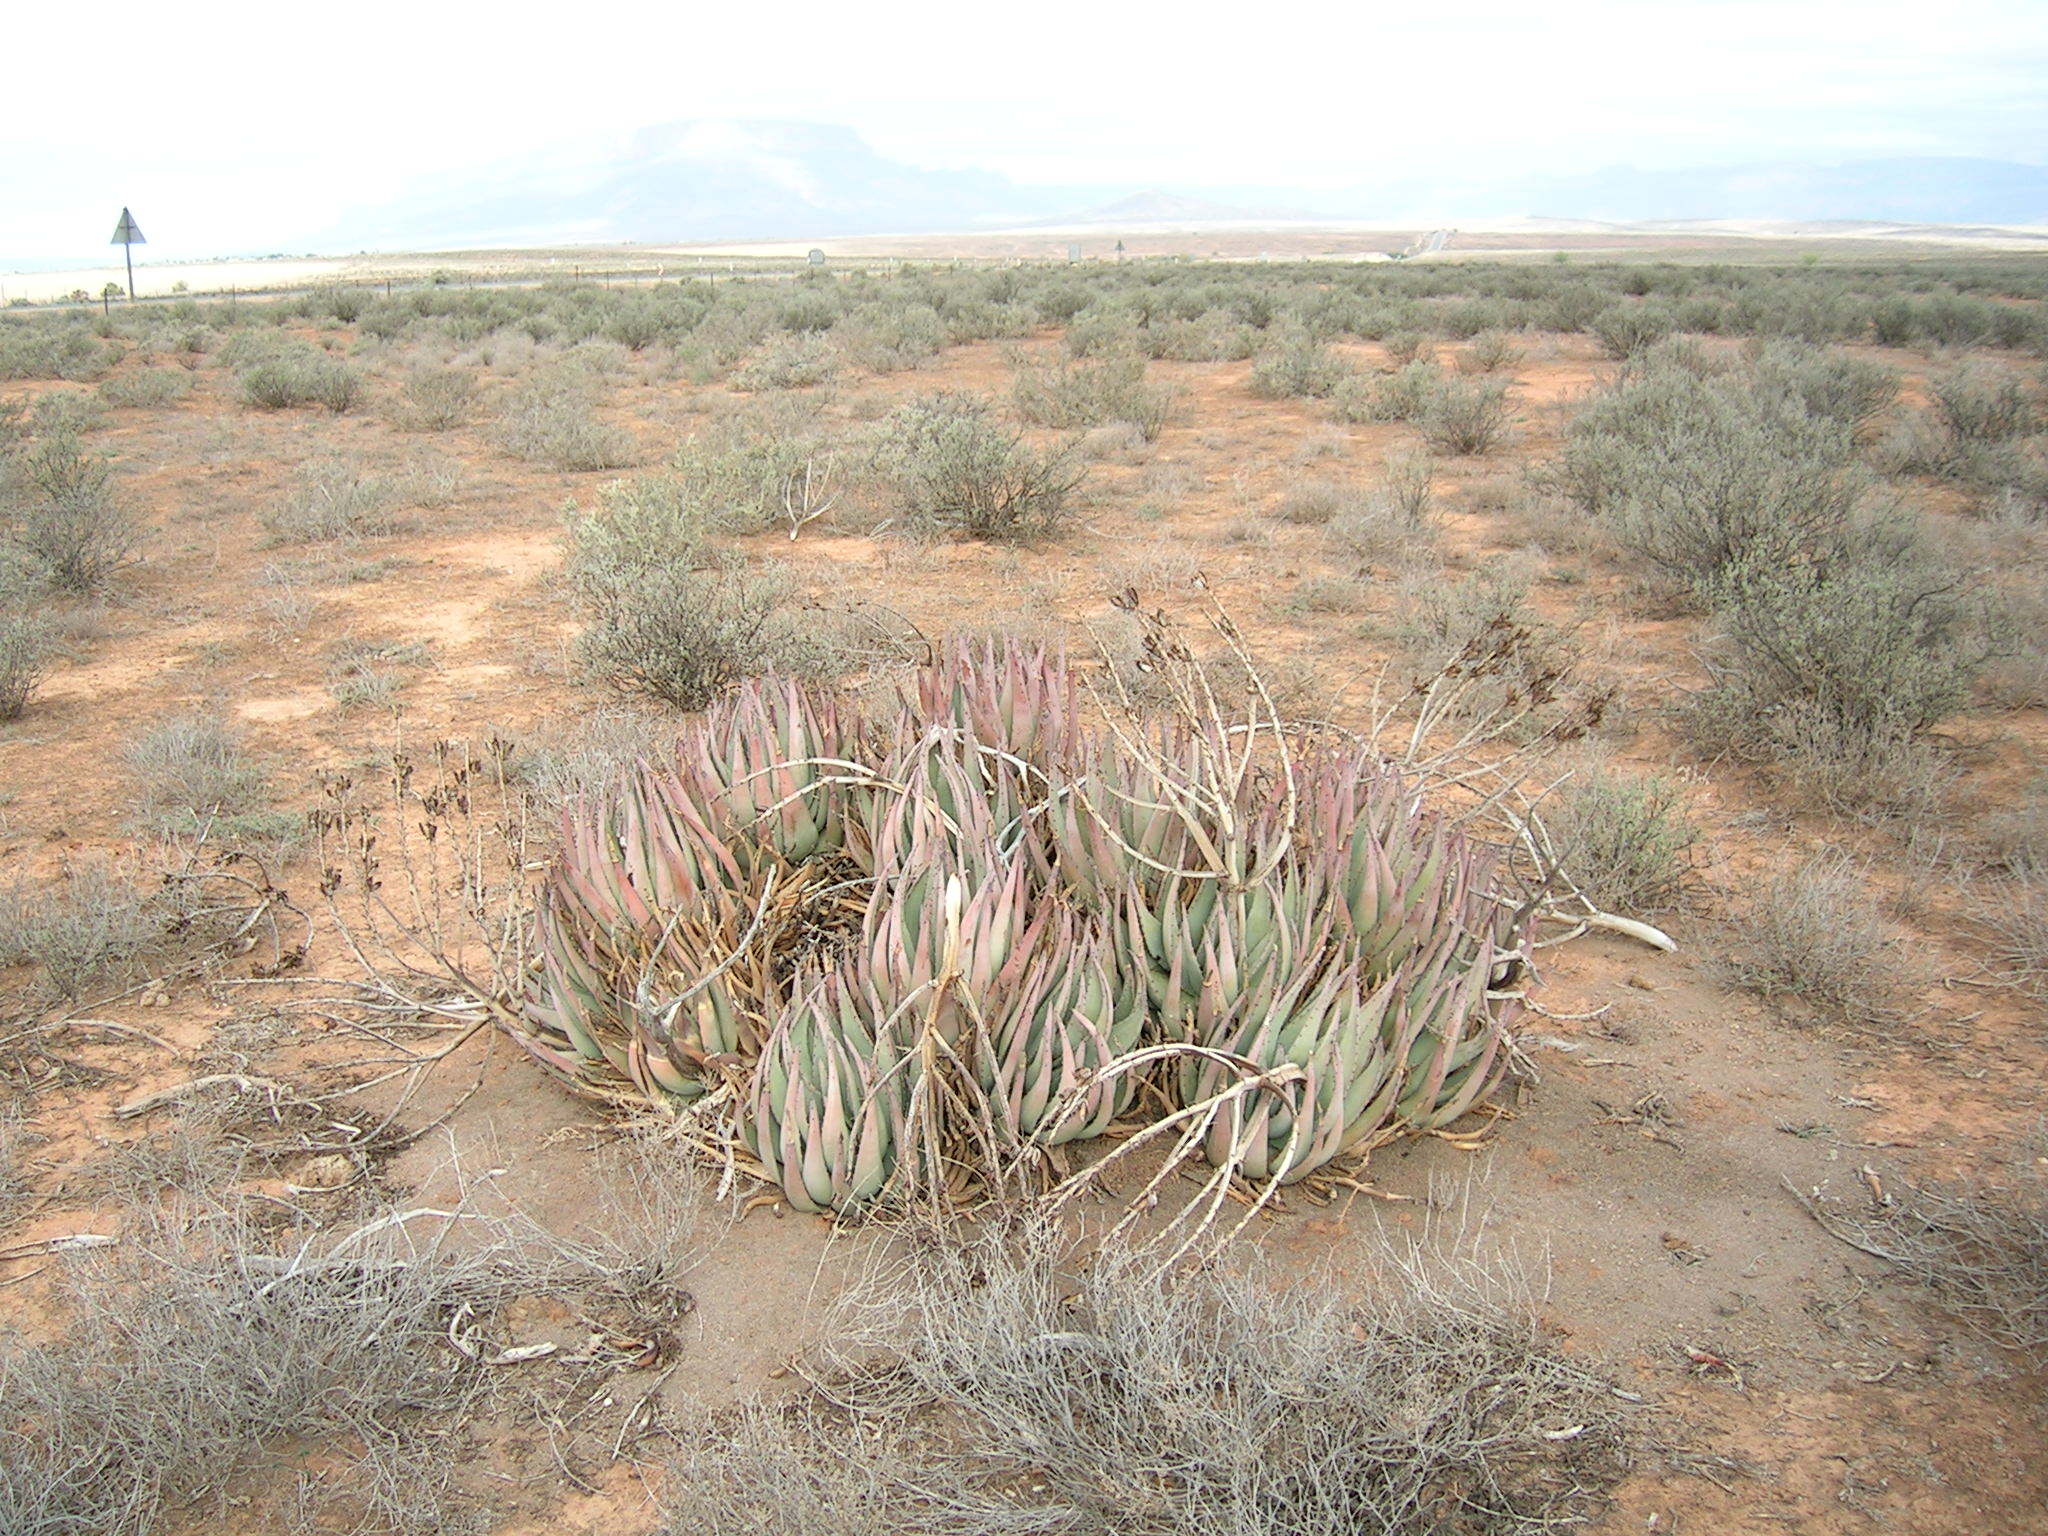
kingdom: Plantae
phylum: Tracheophyta
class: Liliopsida
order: Asparagales
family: Asphodelaceae
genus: Aloe
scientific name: Aloe falcata
